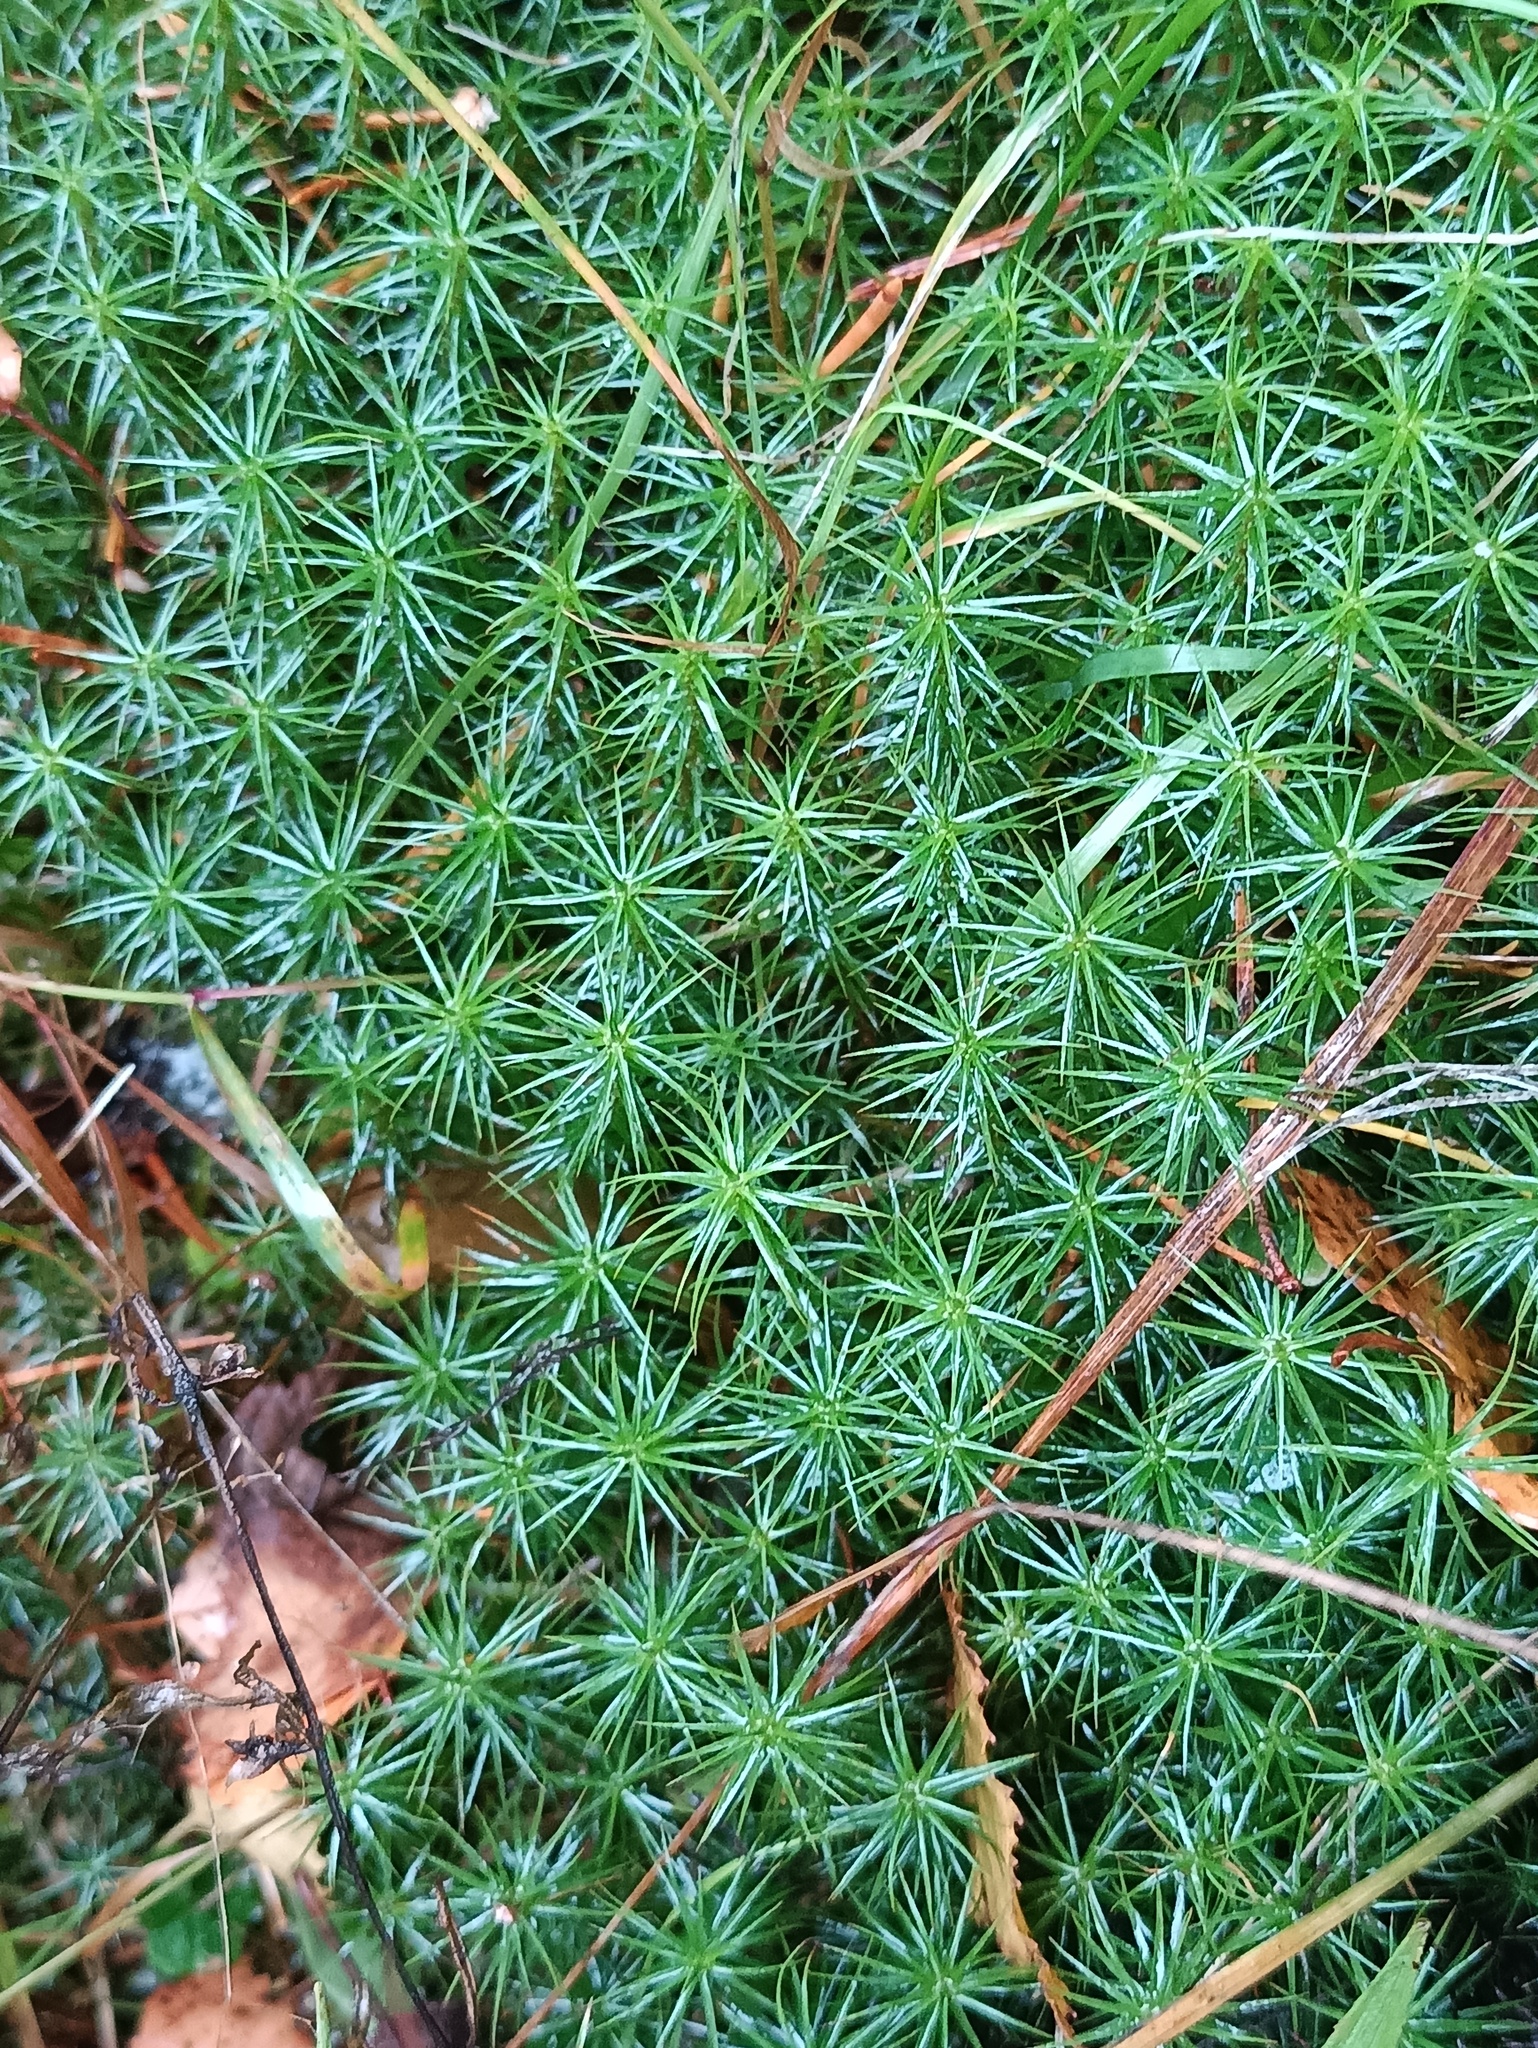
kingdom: Plantae
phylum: Bryophyta
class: Polytrichopsida
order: Polytrichales
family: Polytrichaceae
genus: Polytrichum
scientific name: Polytrichum commune
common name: Common haircap
